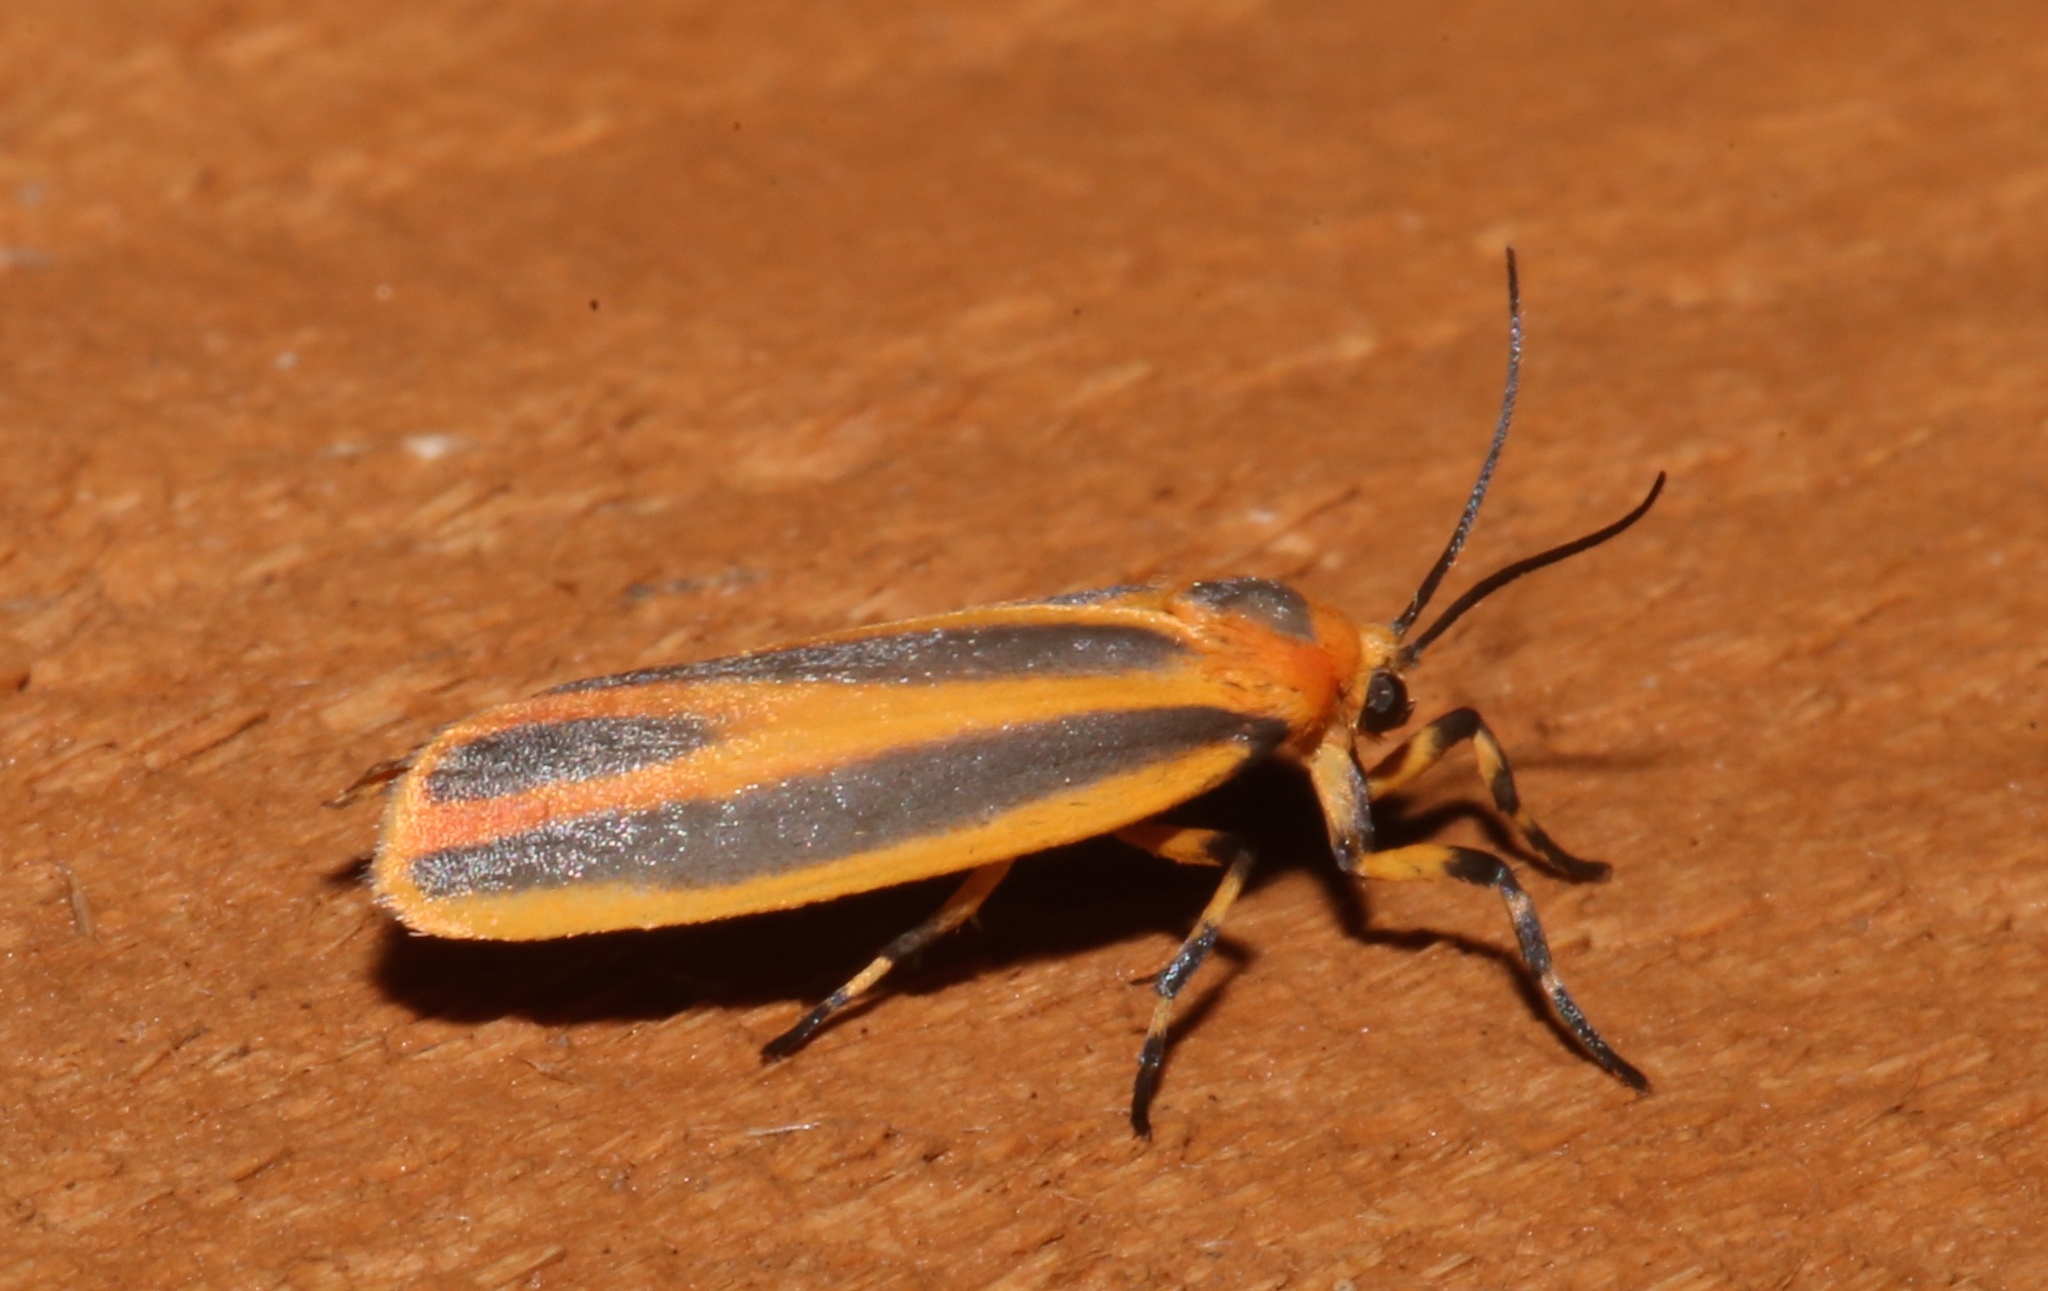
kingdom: Animalia
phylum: Arthropoda
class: Insecta
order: Lepidoptera
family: Erebidae
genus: Hypoprepia
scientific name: Hypoprepia fucosa
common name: Painted lichen moth
